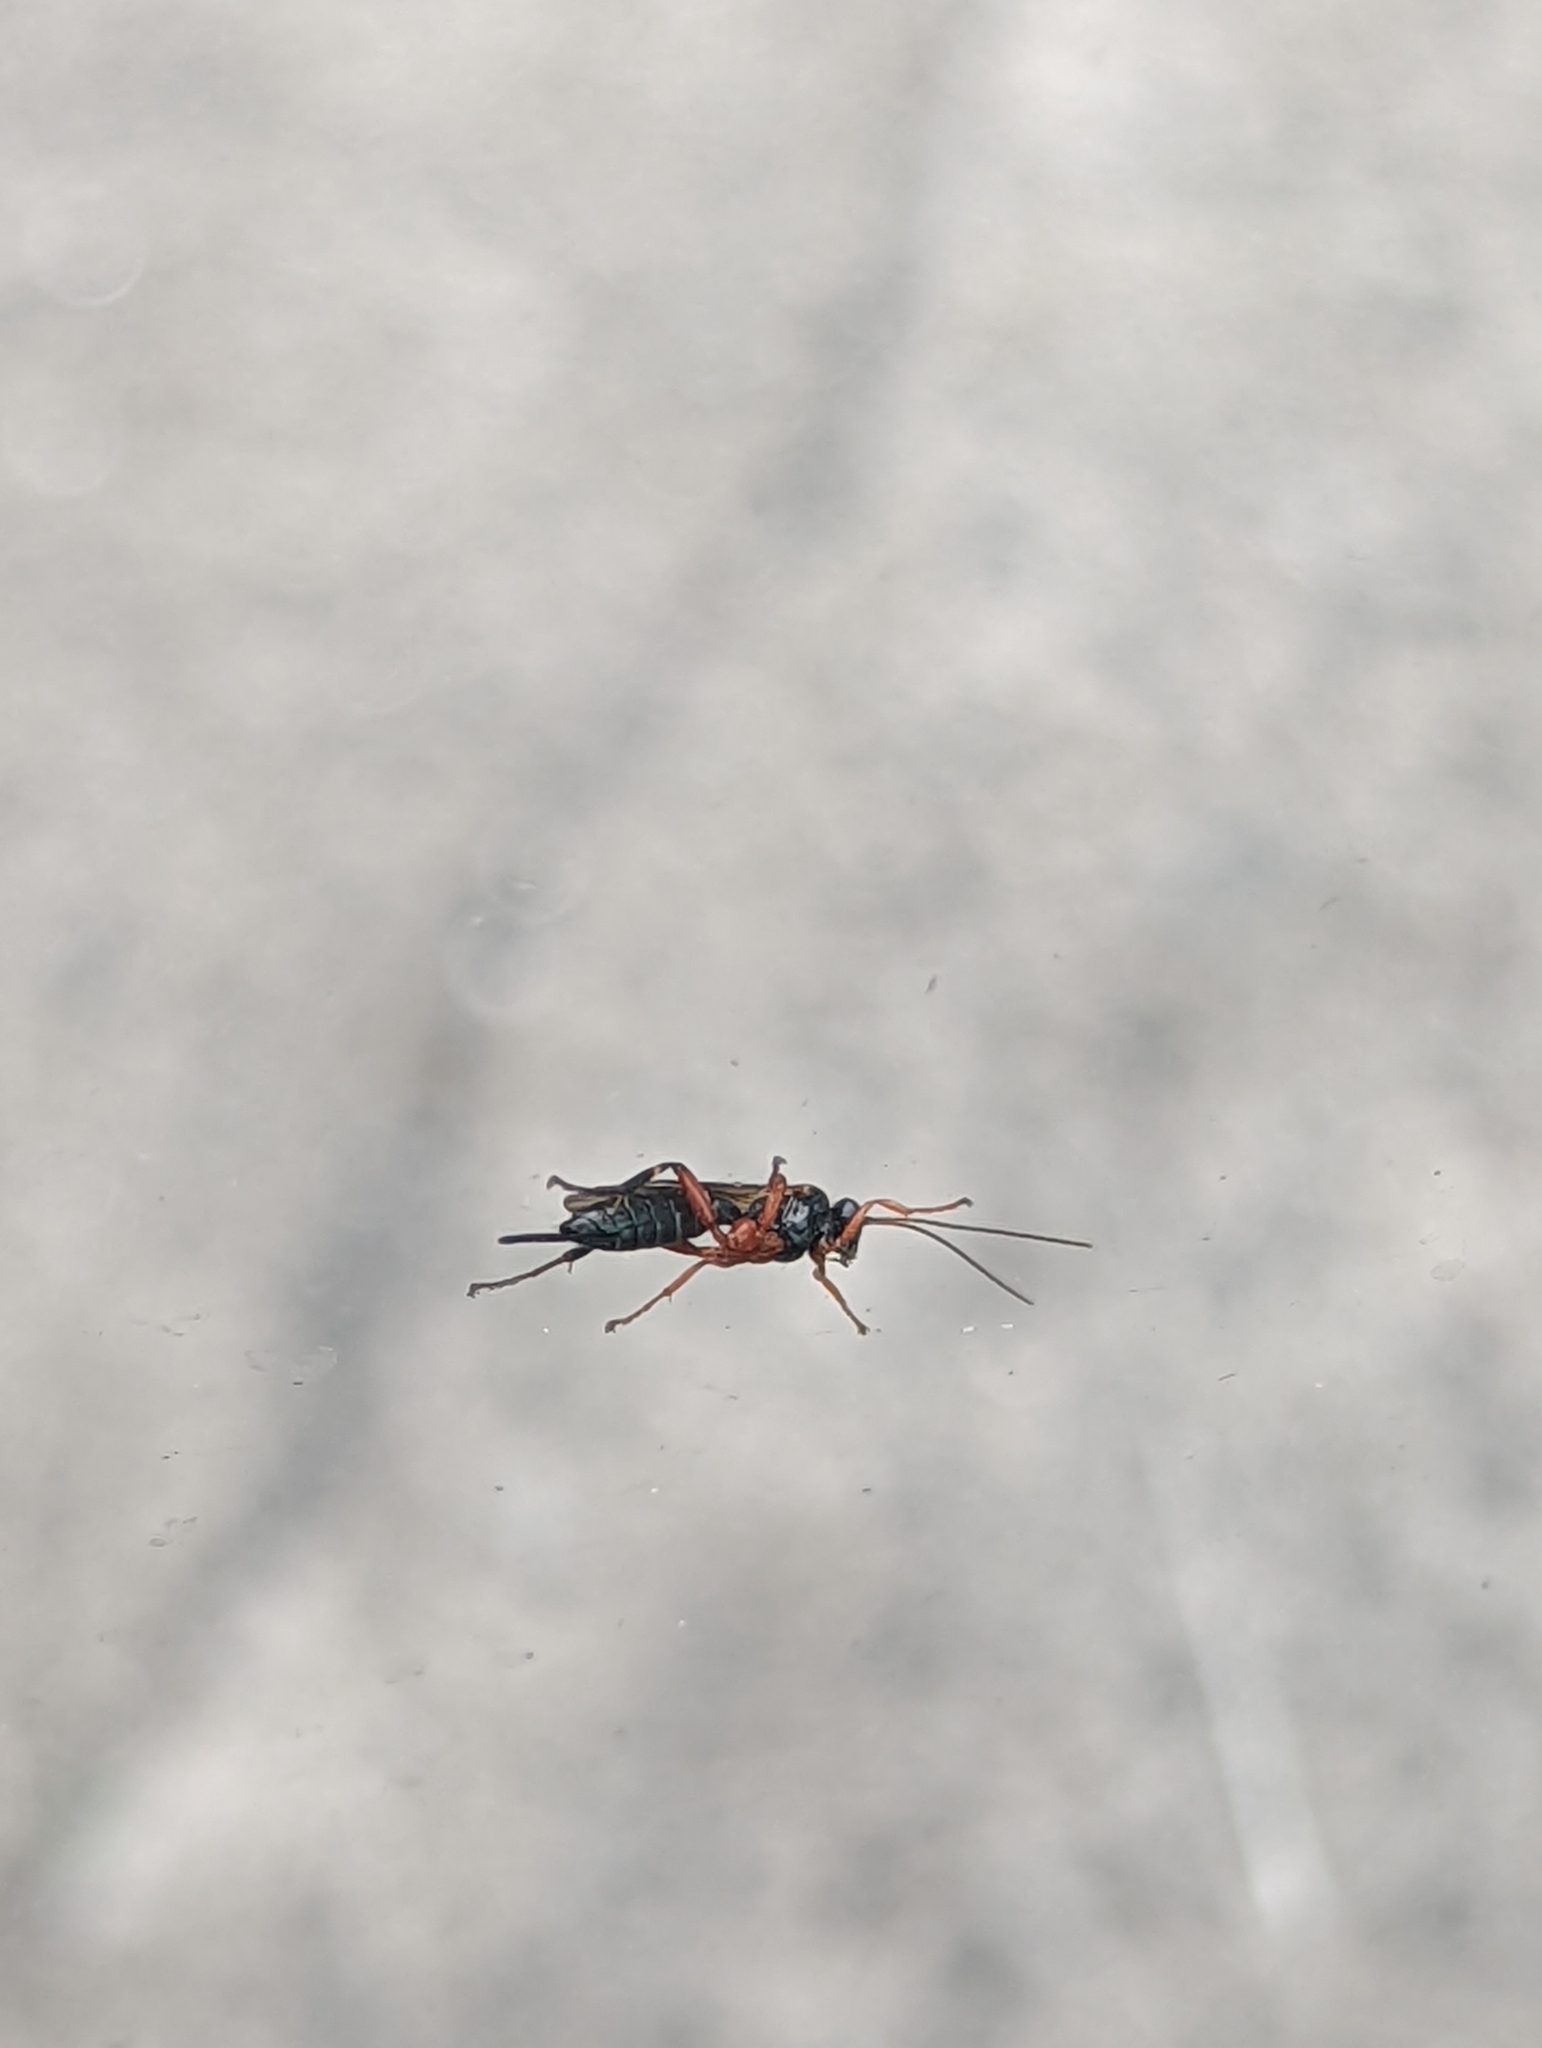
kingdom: Animalia
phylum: Arthropoda
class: Insecta
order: Hymenoptera
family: Ichneumonidae
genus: Pimpla
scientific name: Pimpla rufipes
